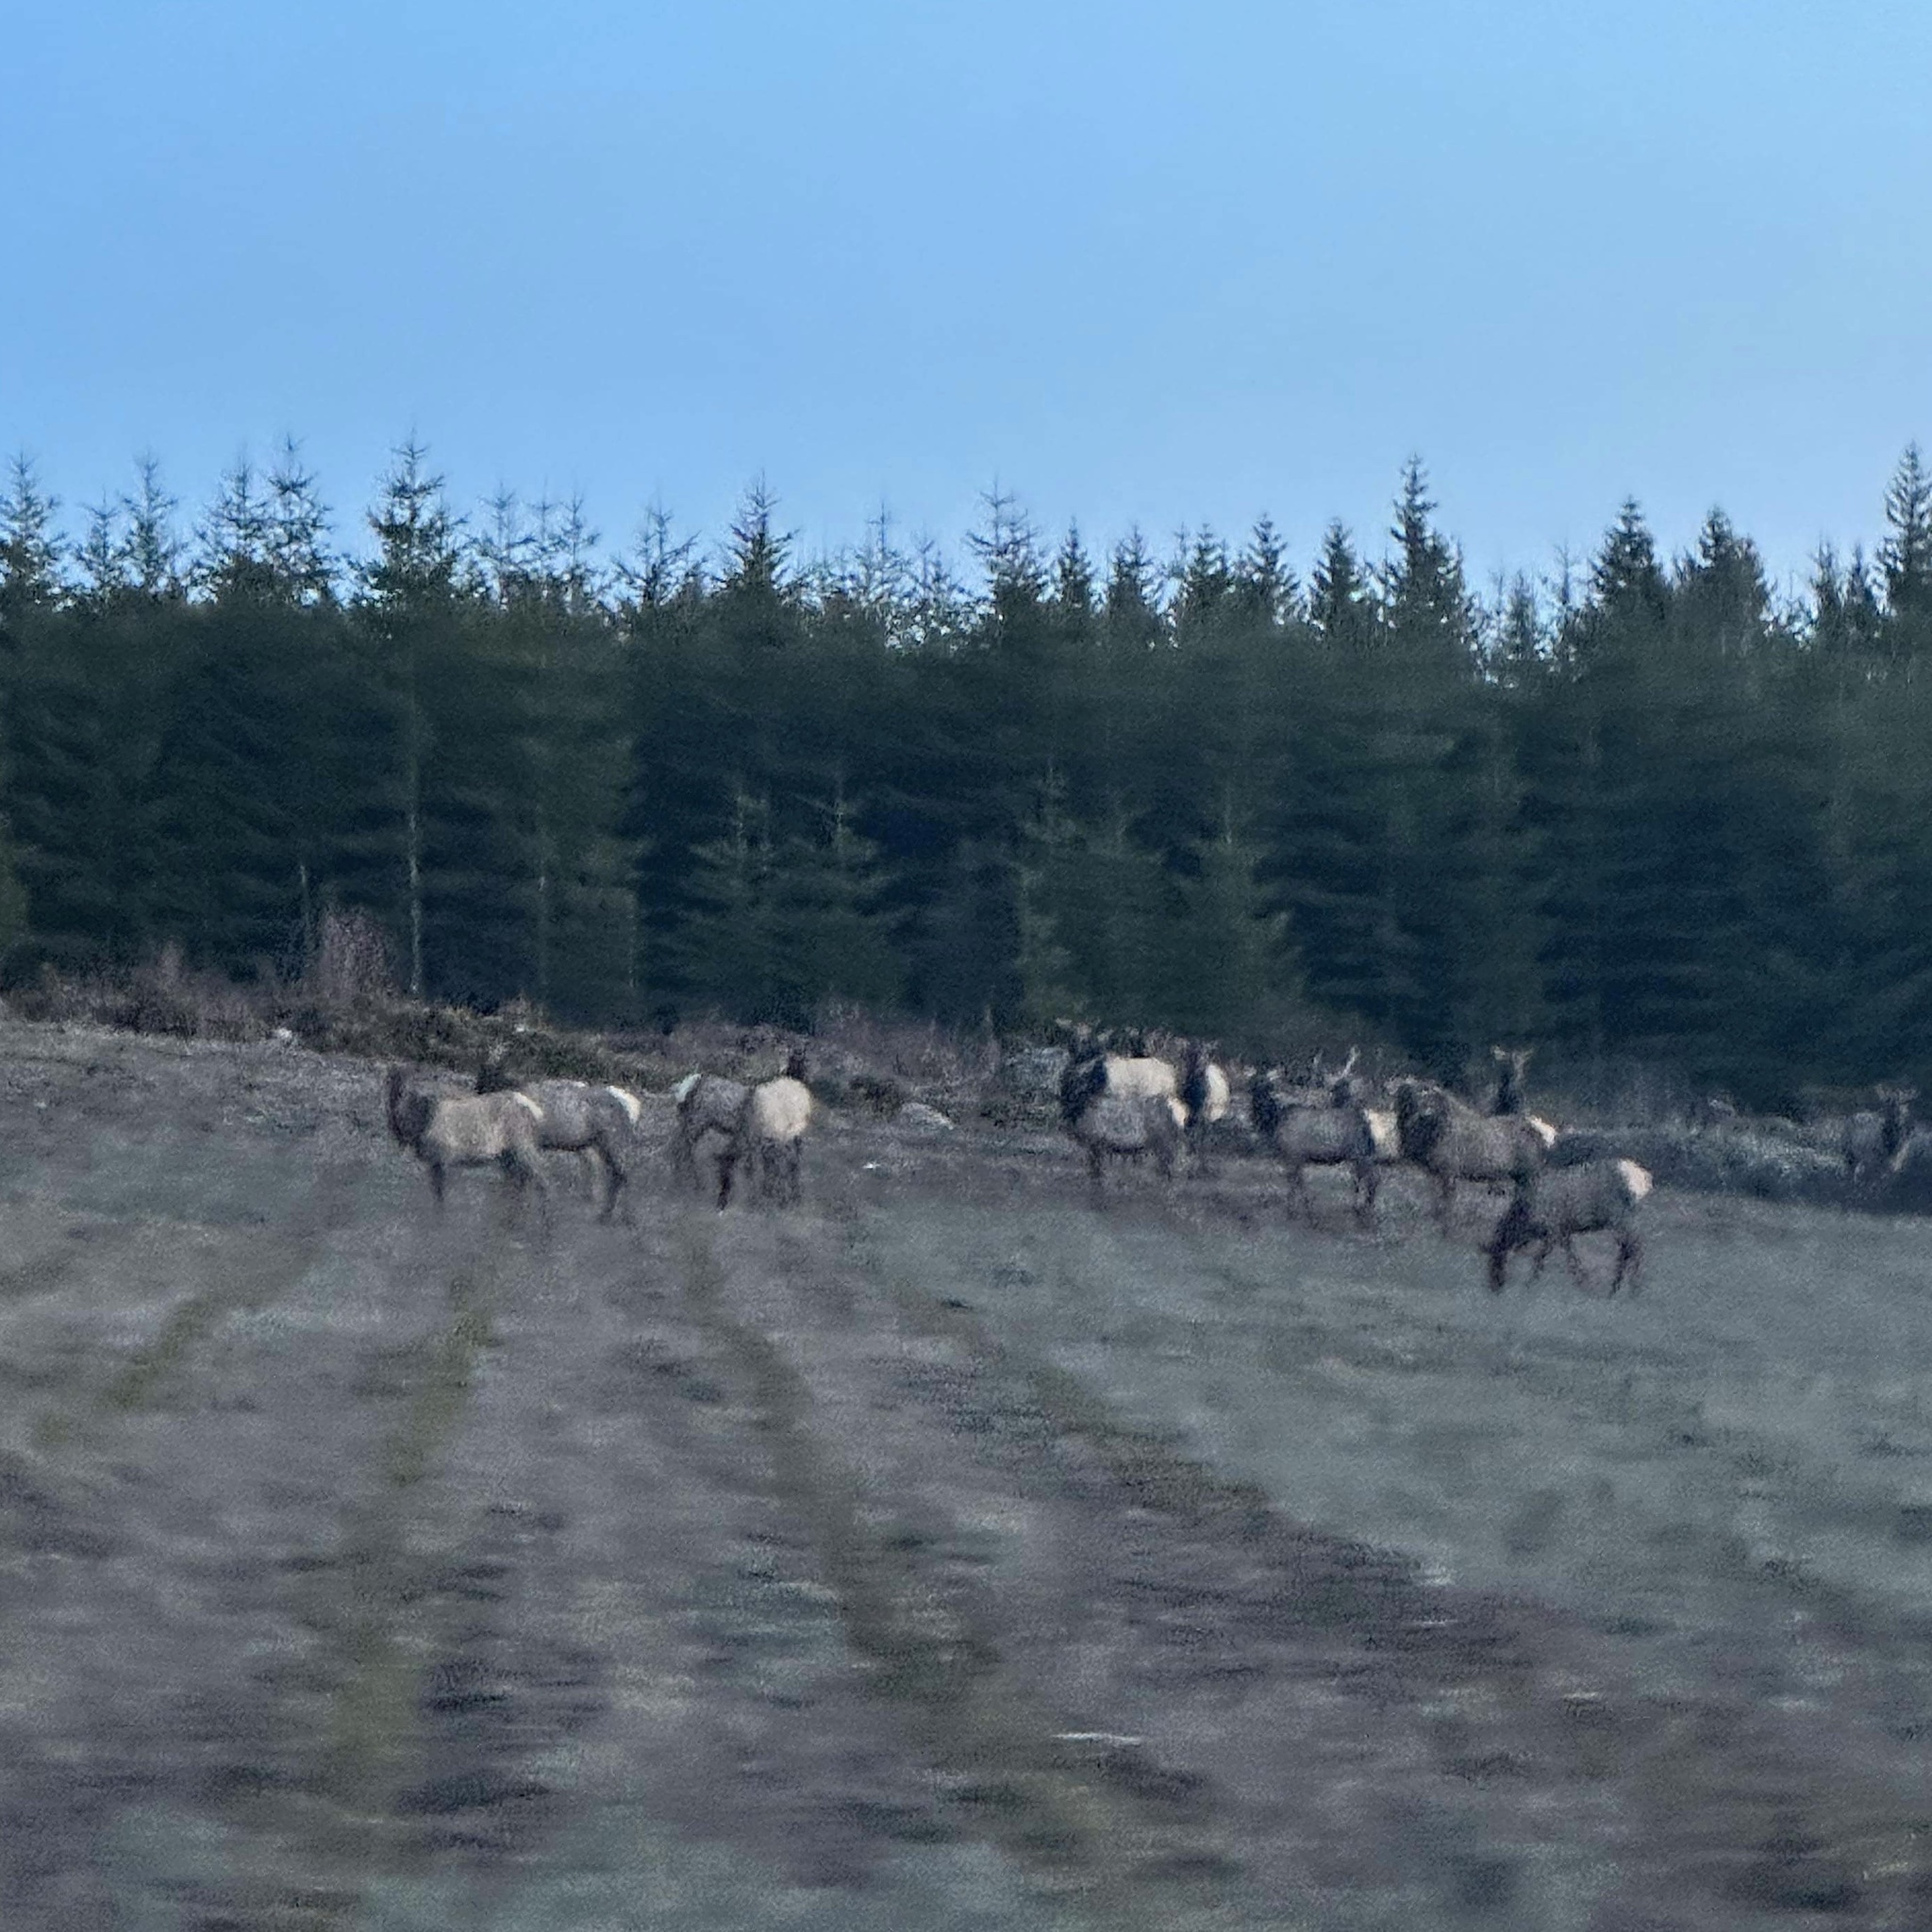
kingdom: Animalia
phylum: Chordata
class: Mammalia
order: Artiodactyla
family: Cervidae
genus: Cervus
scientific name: Cervus elaphus
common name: Red deer
